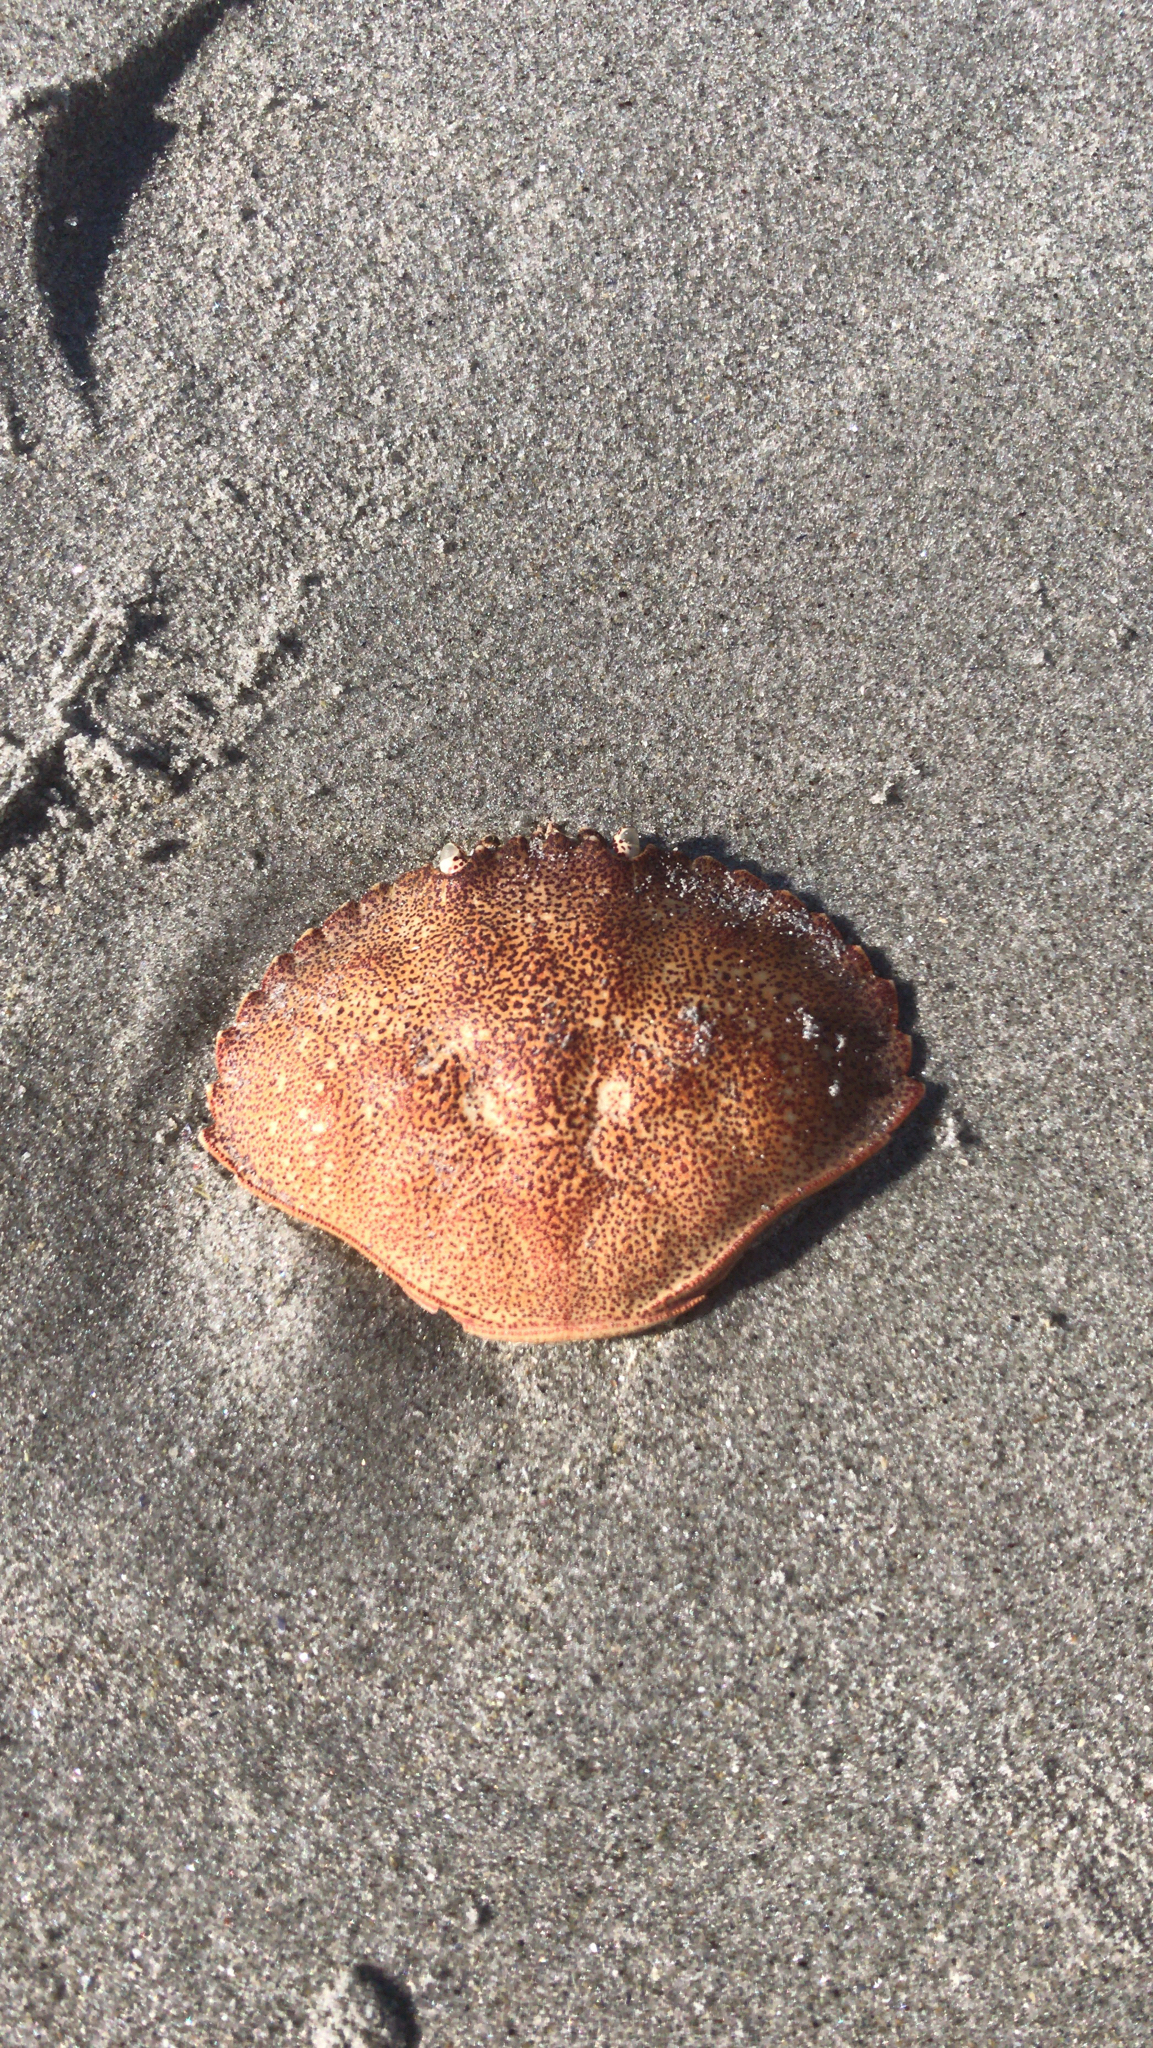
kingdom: Animalia
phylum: Arthropoda
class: Malacostraca
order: Decapoda
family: Cancridae
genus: Cancer
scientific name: Cancer irroratus
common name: Atlantic rock crab
